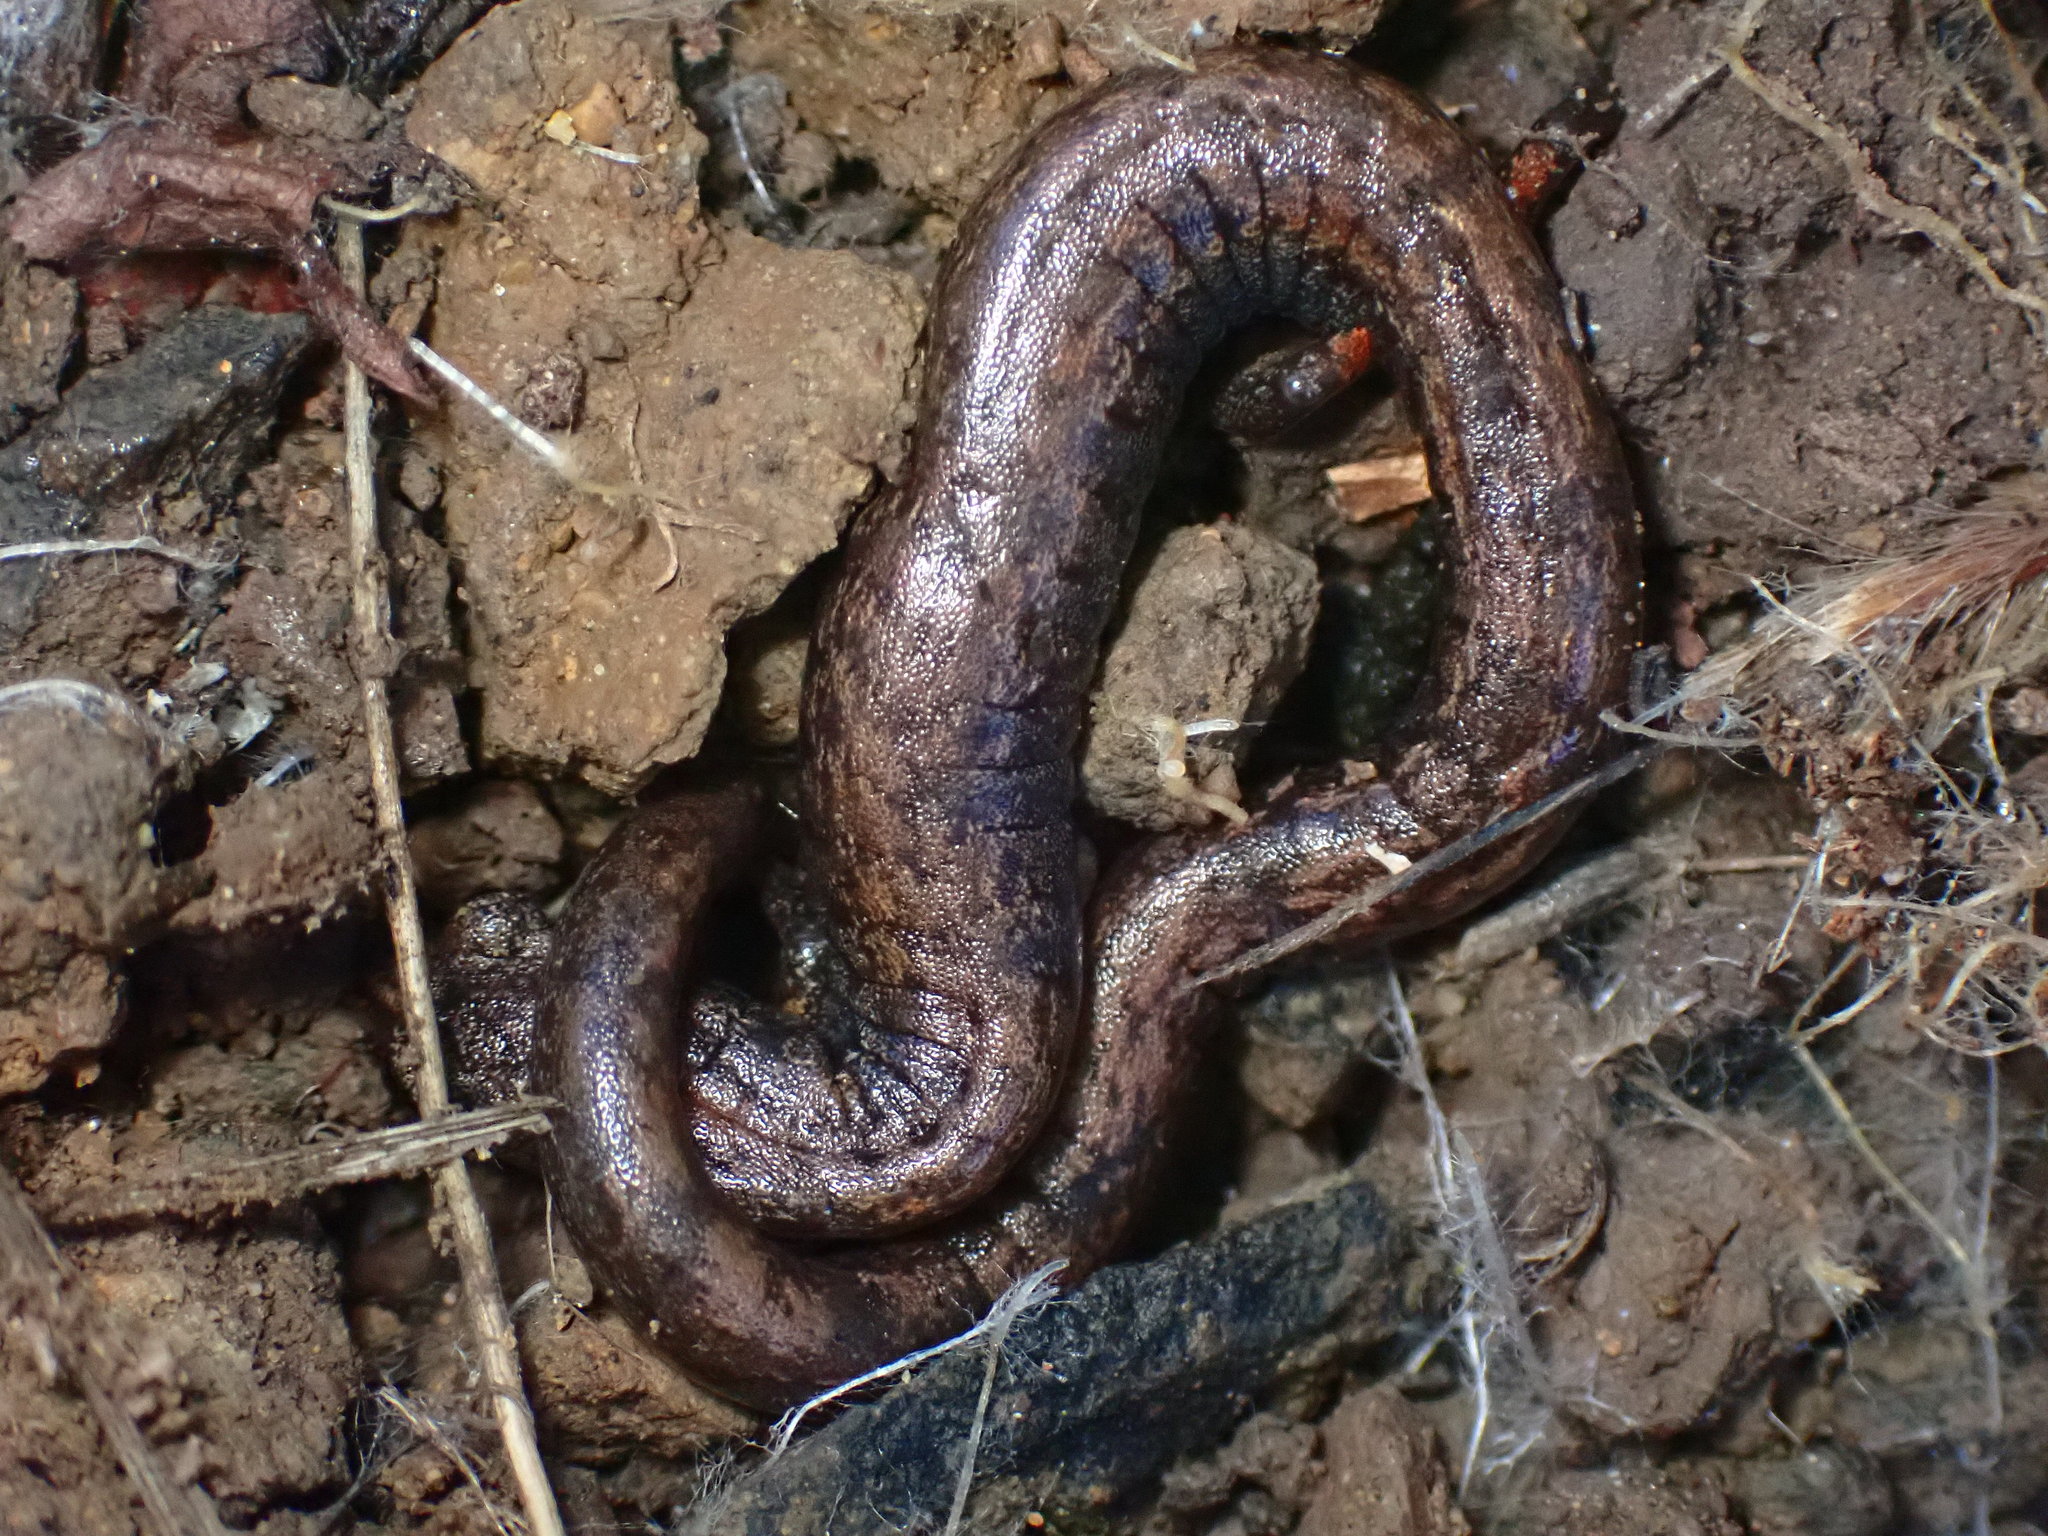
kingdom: Animalia
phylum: Chordata
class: Amphibia
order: Caudata
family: Plethodontidae
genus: Batrachoseps
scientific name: Batrachoseps attenuatus
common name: California slender salamander
